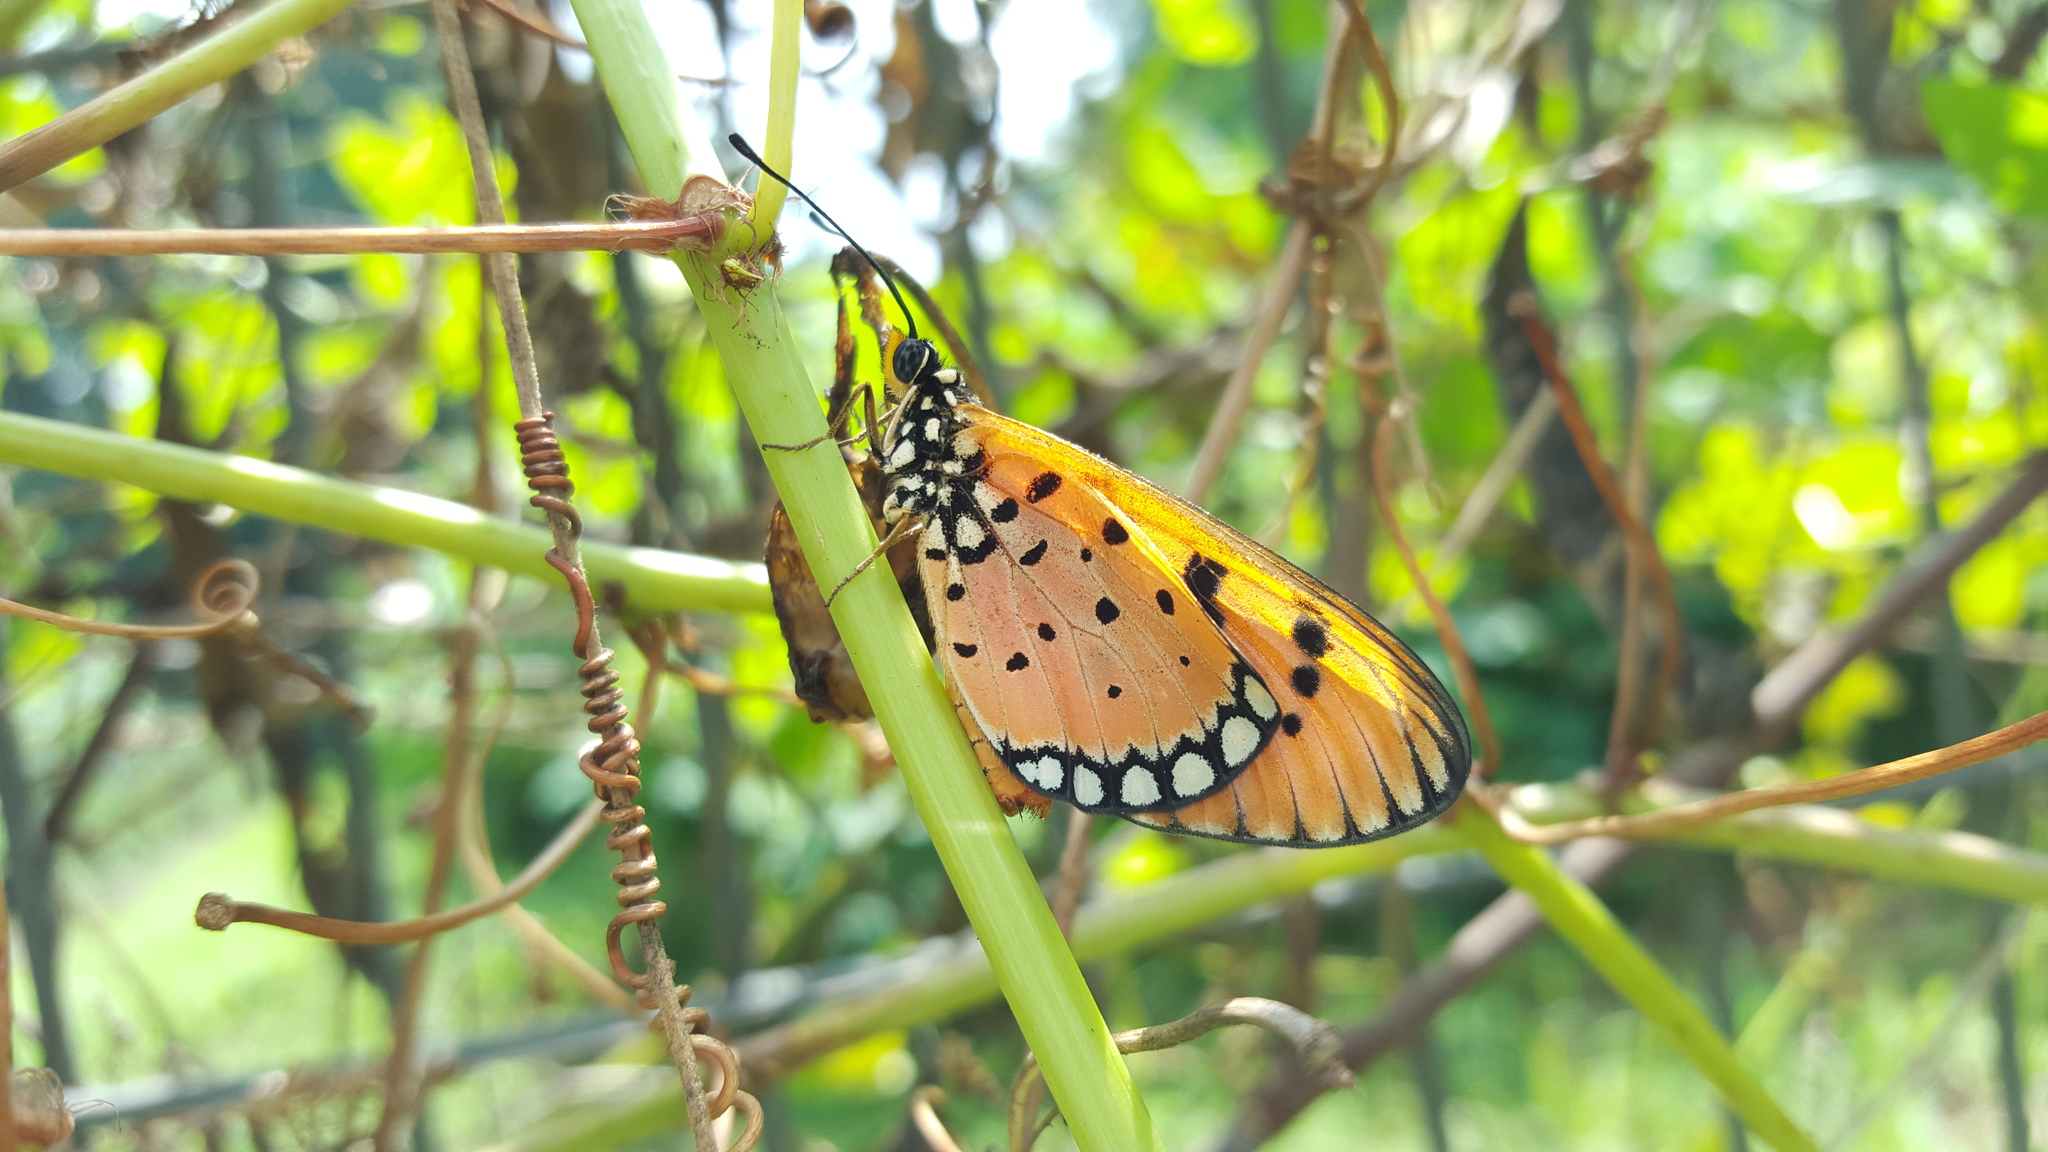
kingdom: Animalia
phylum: Arthropoda
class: Insecta
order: Lepidoptera
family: Nymphalidae
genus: Acraea
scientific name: Acraea terpsicore
